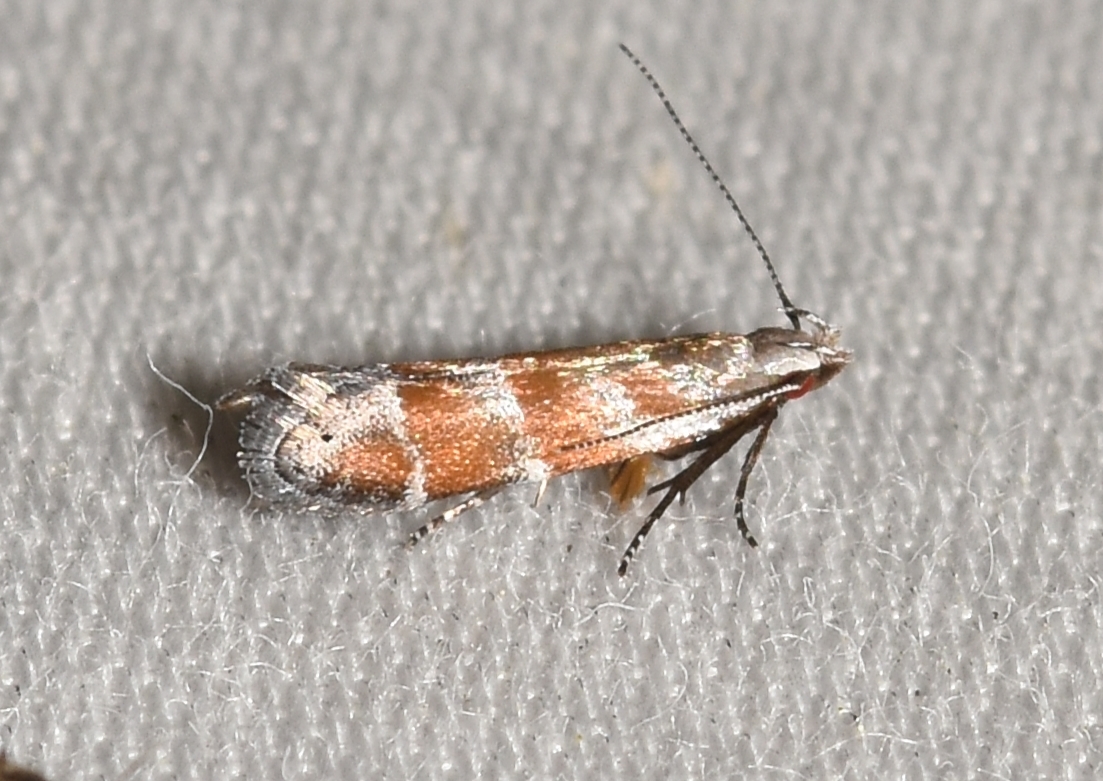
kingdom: Animalia
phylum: Arthropoda
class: Insecta
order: Lepidoptera
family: Gelechiidae
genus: Battaristis
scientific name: Battaristis vittella
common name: Orange stripe-backed moth
